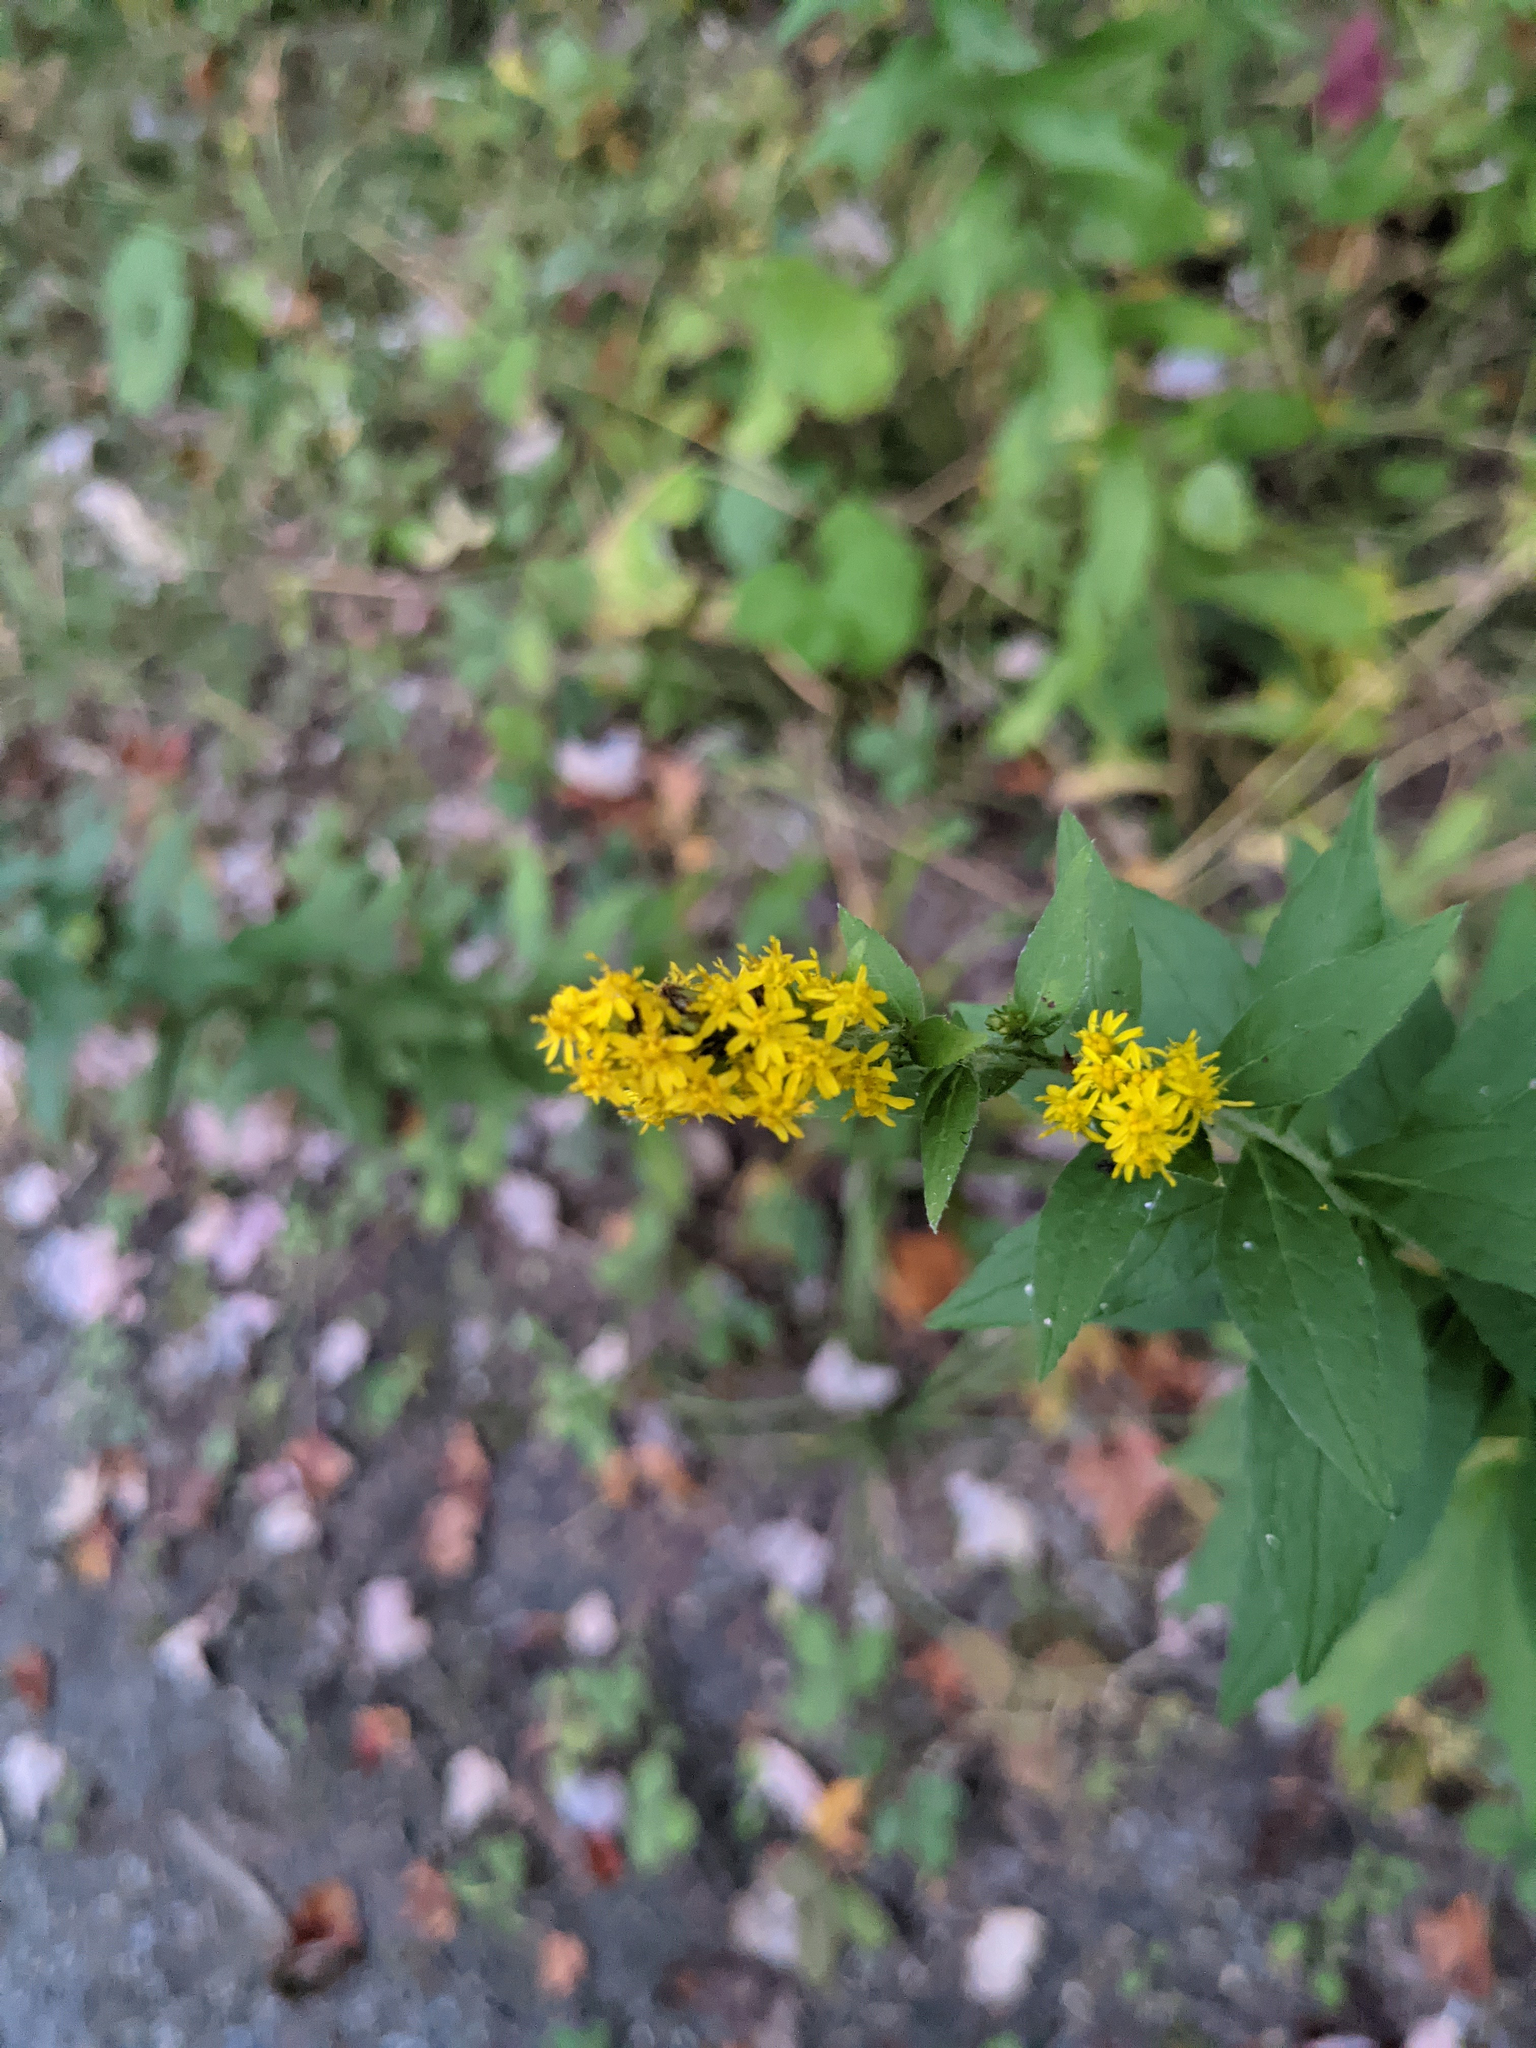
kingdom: Plantae
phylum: Tracheophyta
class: Magnoliopsida
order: Asterales
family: Asteraceae
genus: Solidago
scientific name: Solidago rugosa
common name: Rough-stemmed goldenrod
